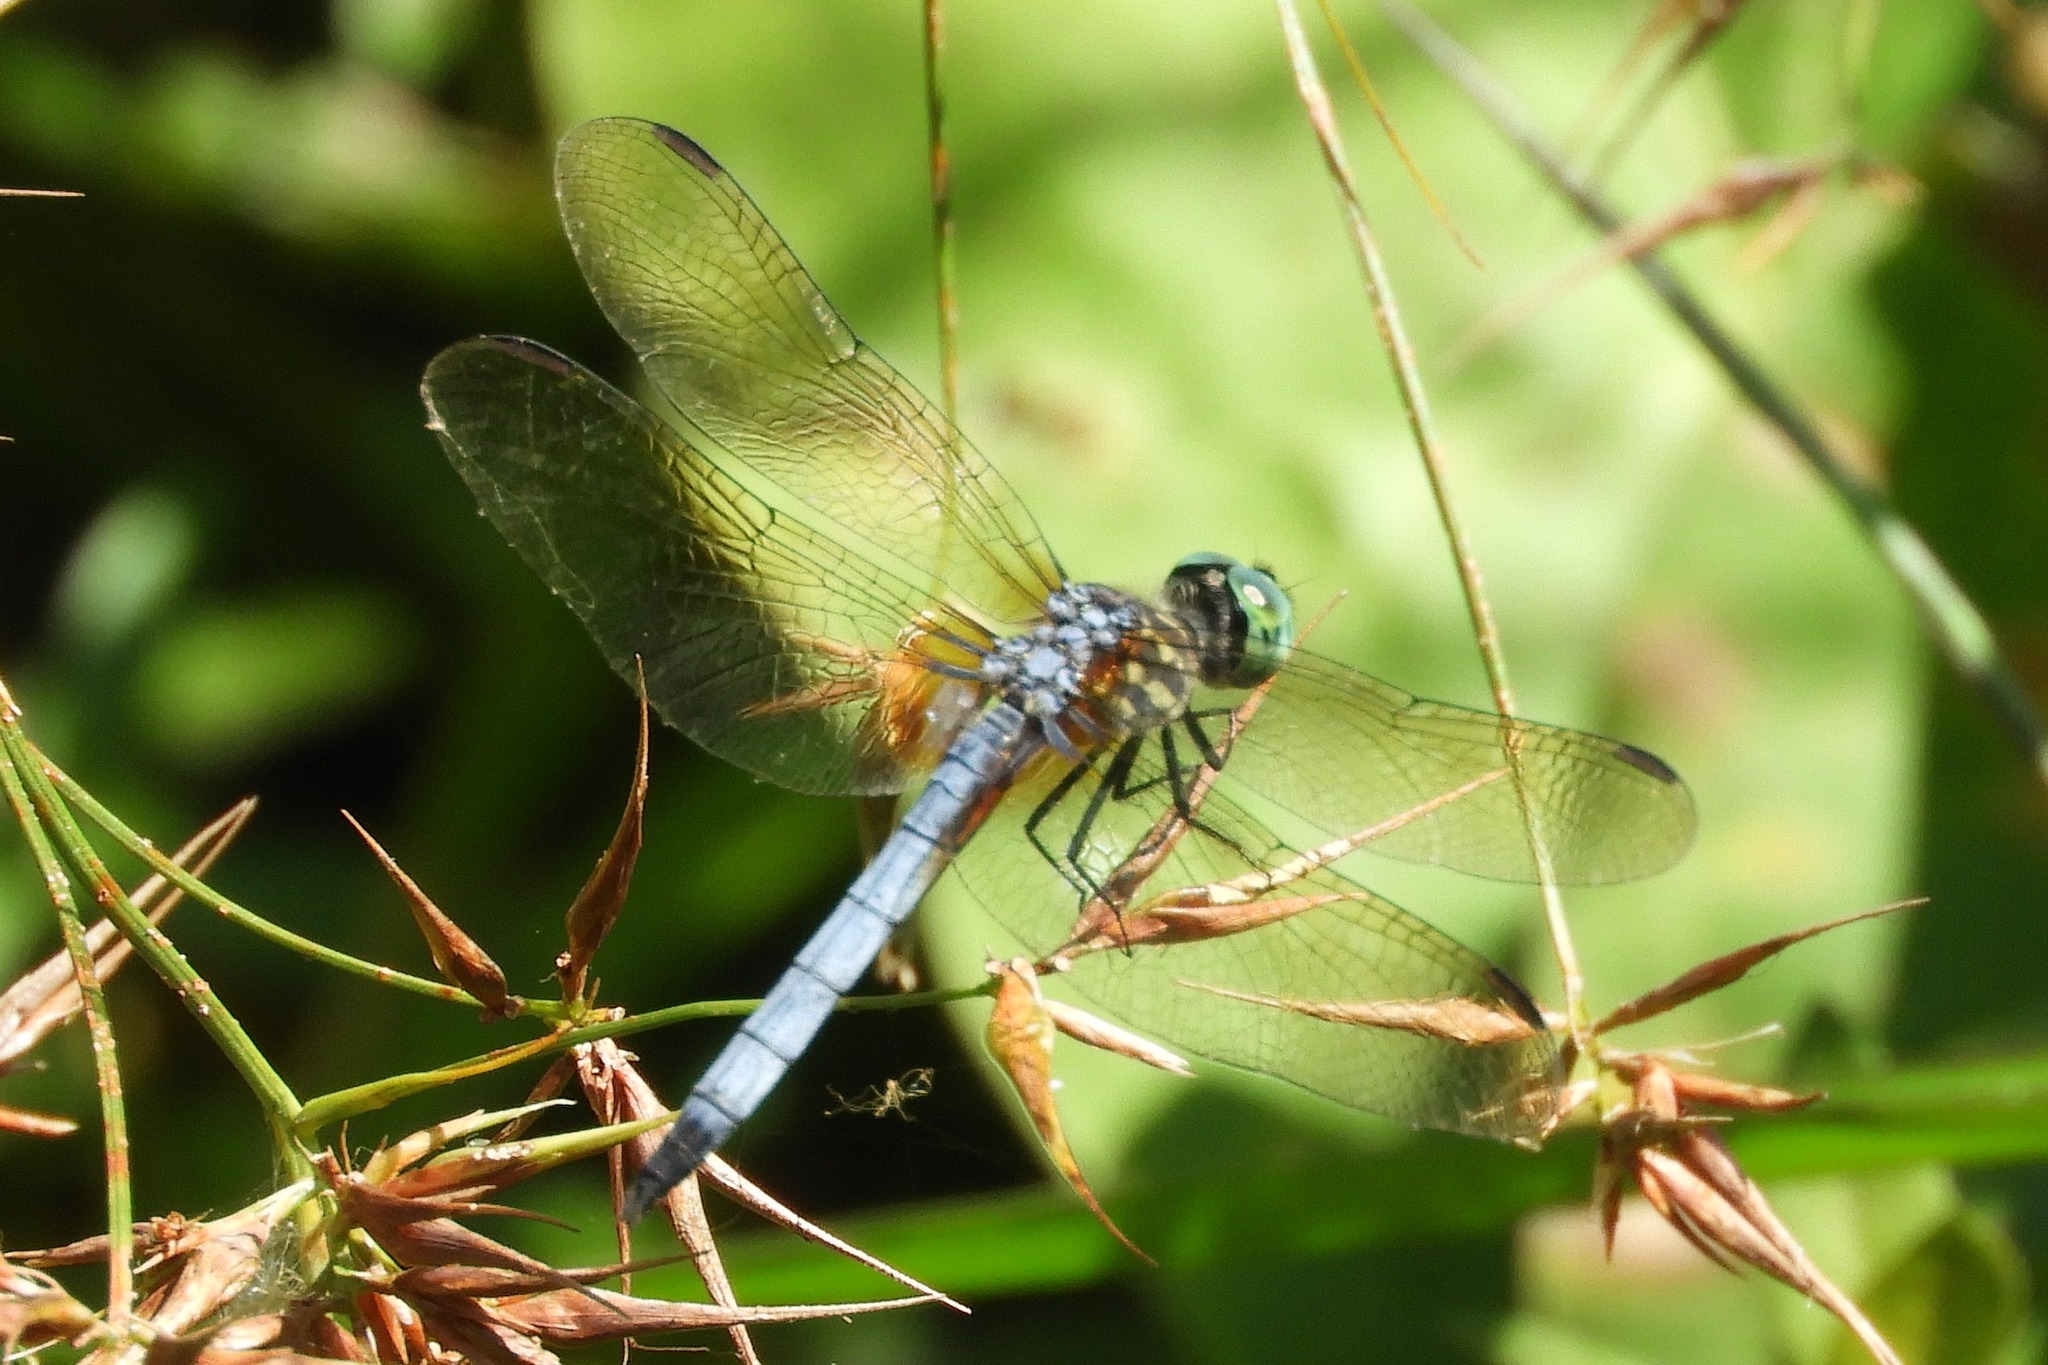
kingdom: Animalia
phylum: Arthropoda
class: Insecta
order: Odonata
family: Libellulidae
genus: Pachydiplax
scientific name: Pachydiplax longipennis
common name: Blue dasher
